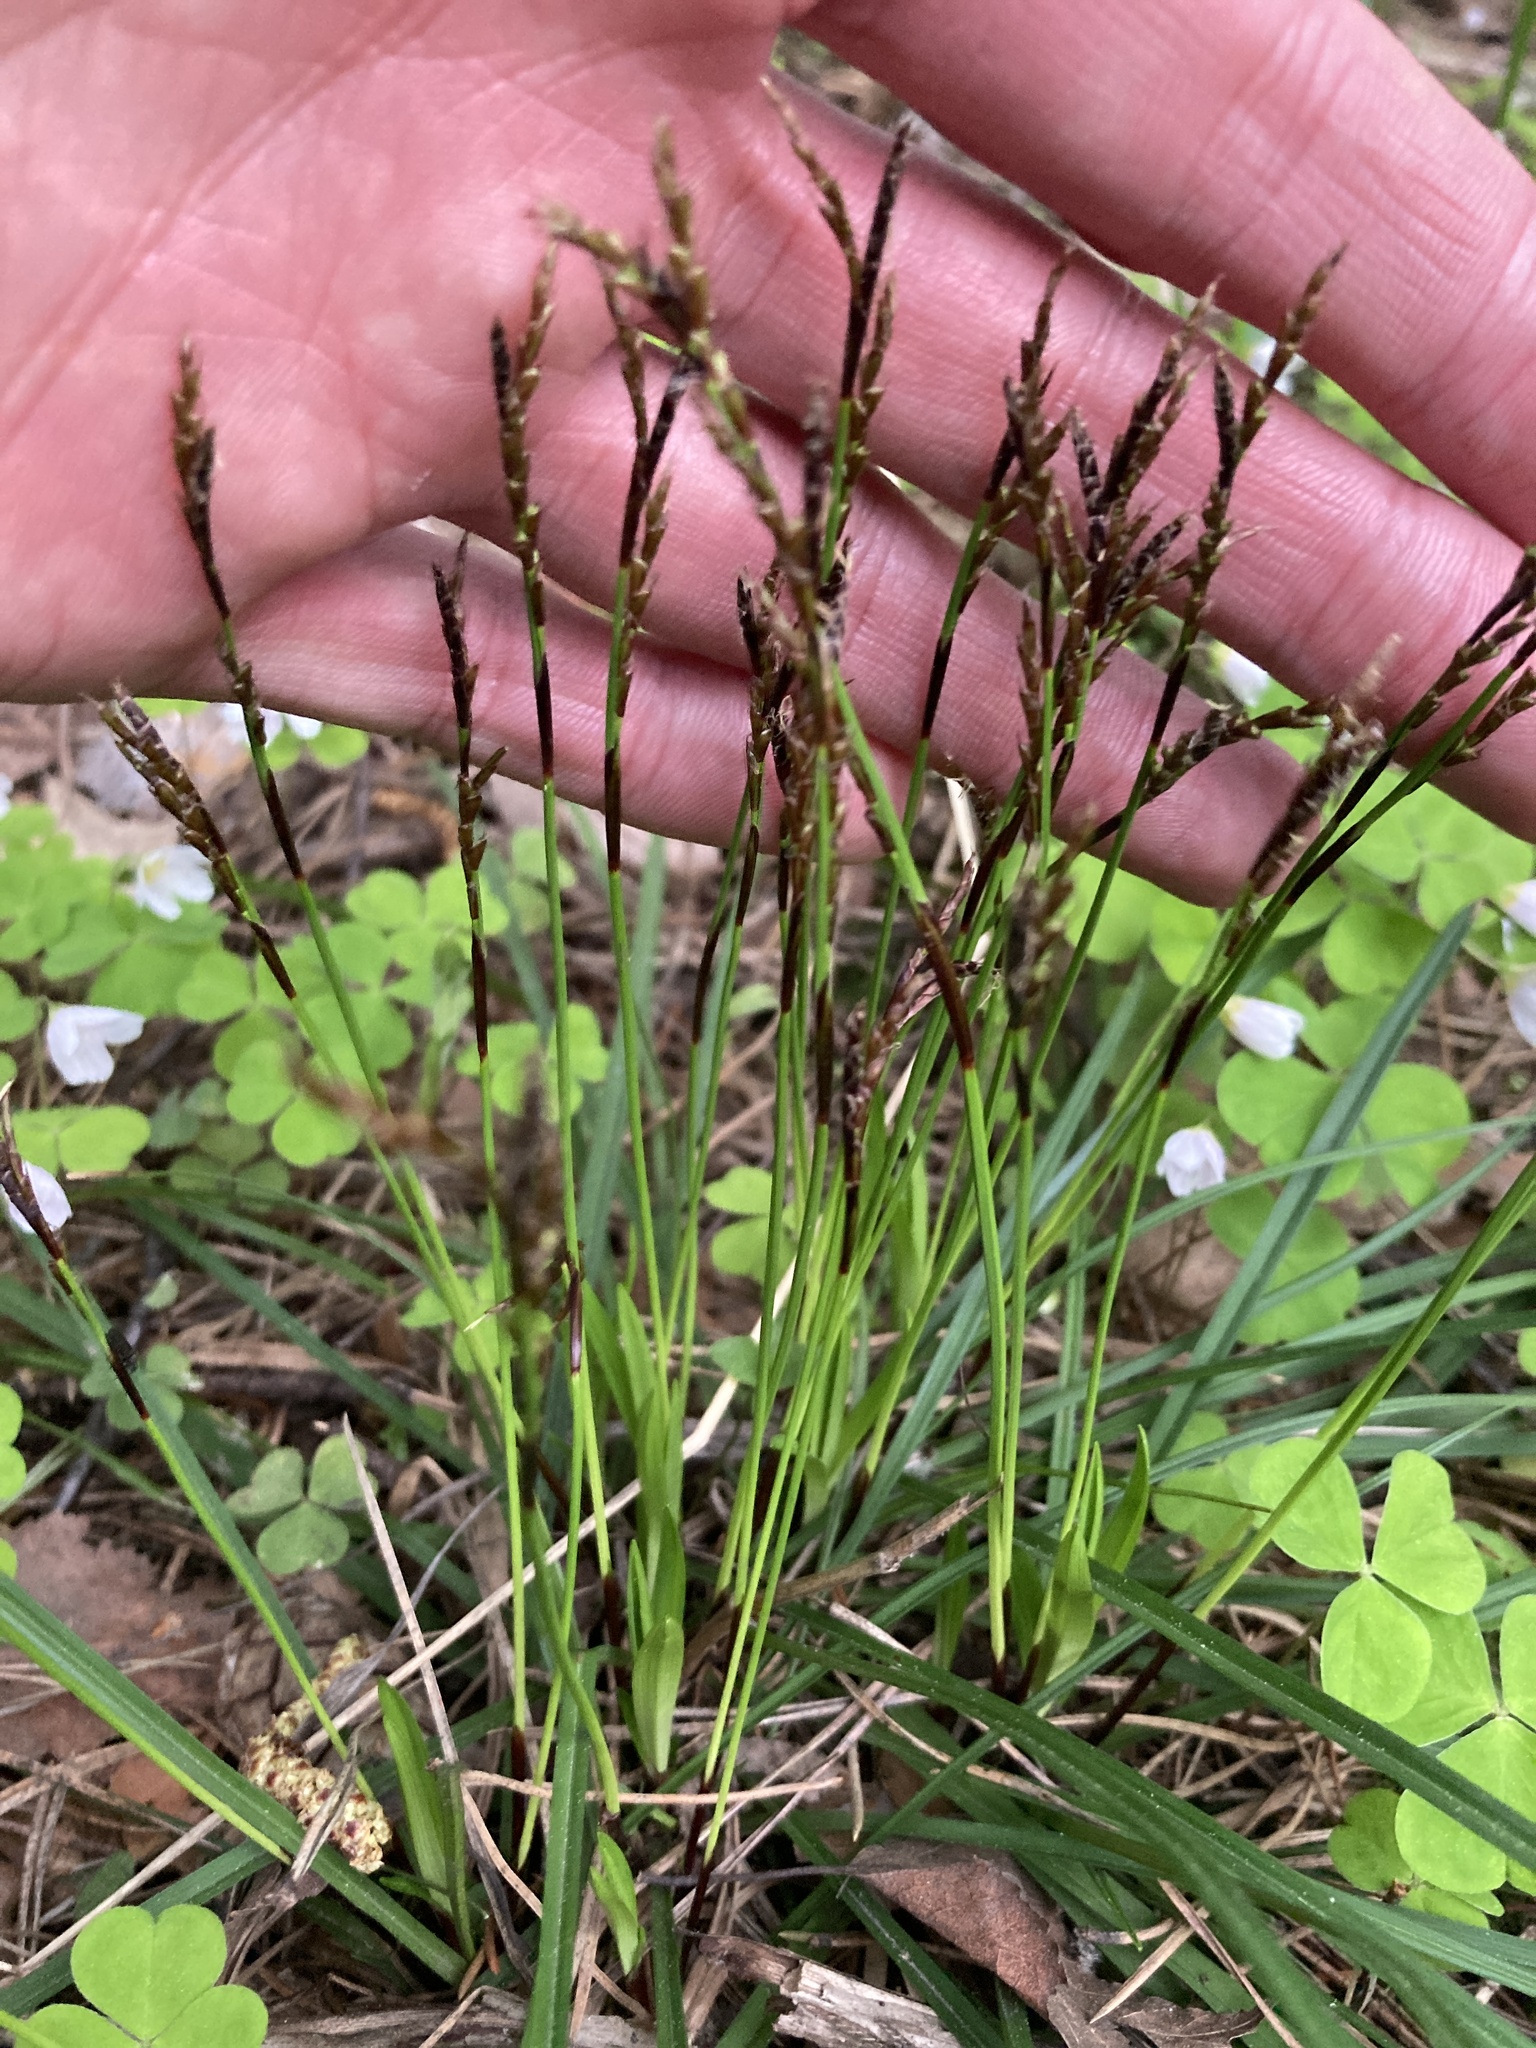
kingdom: Plantae
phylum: Tracheophyta
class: Liliopsida
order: Poales
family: Cyperaceae
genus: Carex
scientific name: Carex digitata
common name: Fingered sedge
